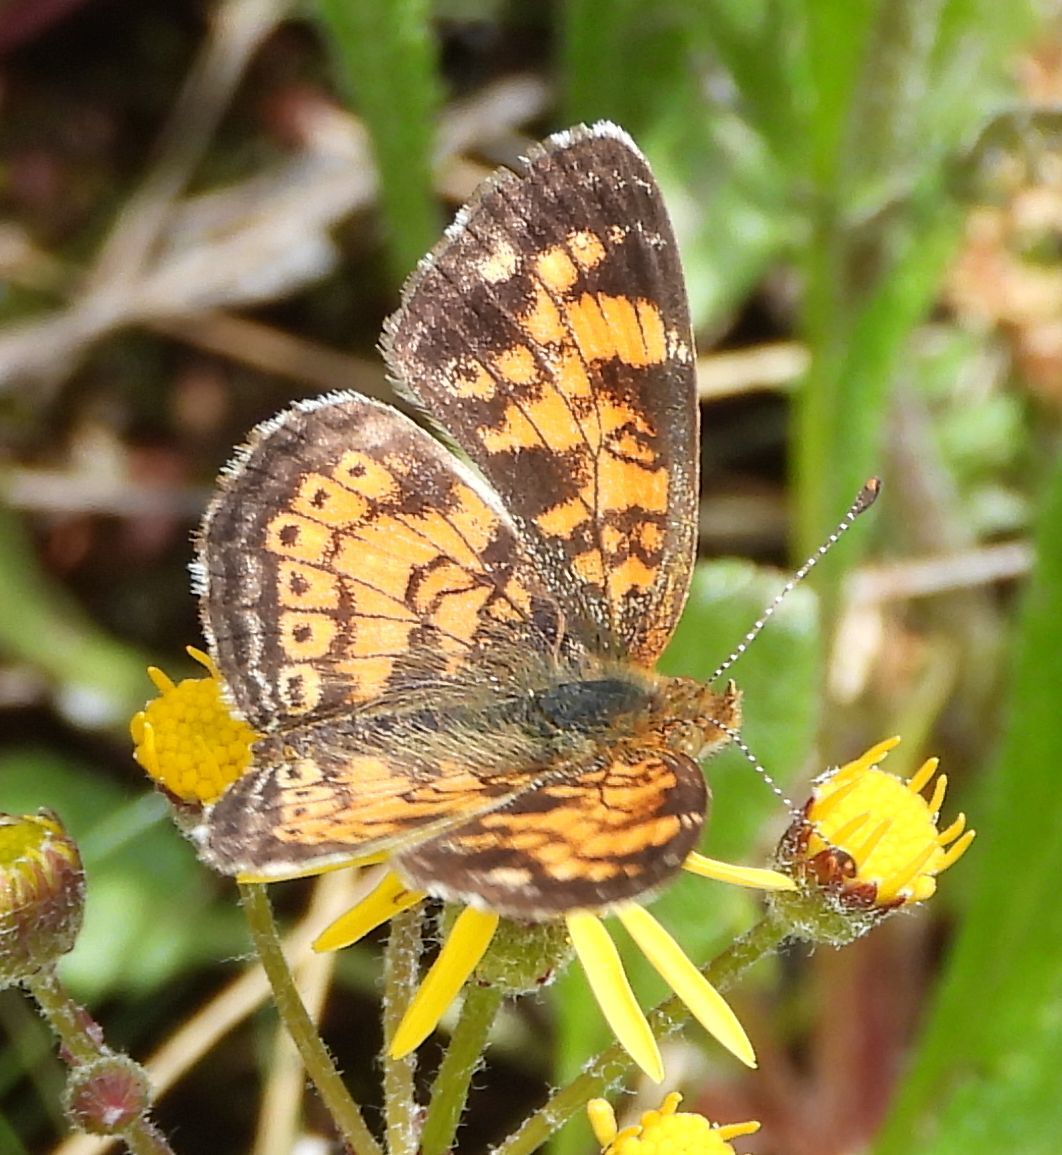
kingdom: Animalia
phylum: Arthropoda
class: Insecta
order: Lepidoptera
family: Nymphalidae
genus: Phyciodes
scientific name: Phyciodes tharos
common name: Pearl crescent
